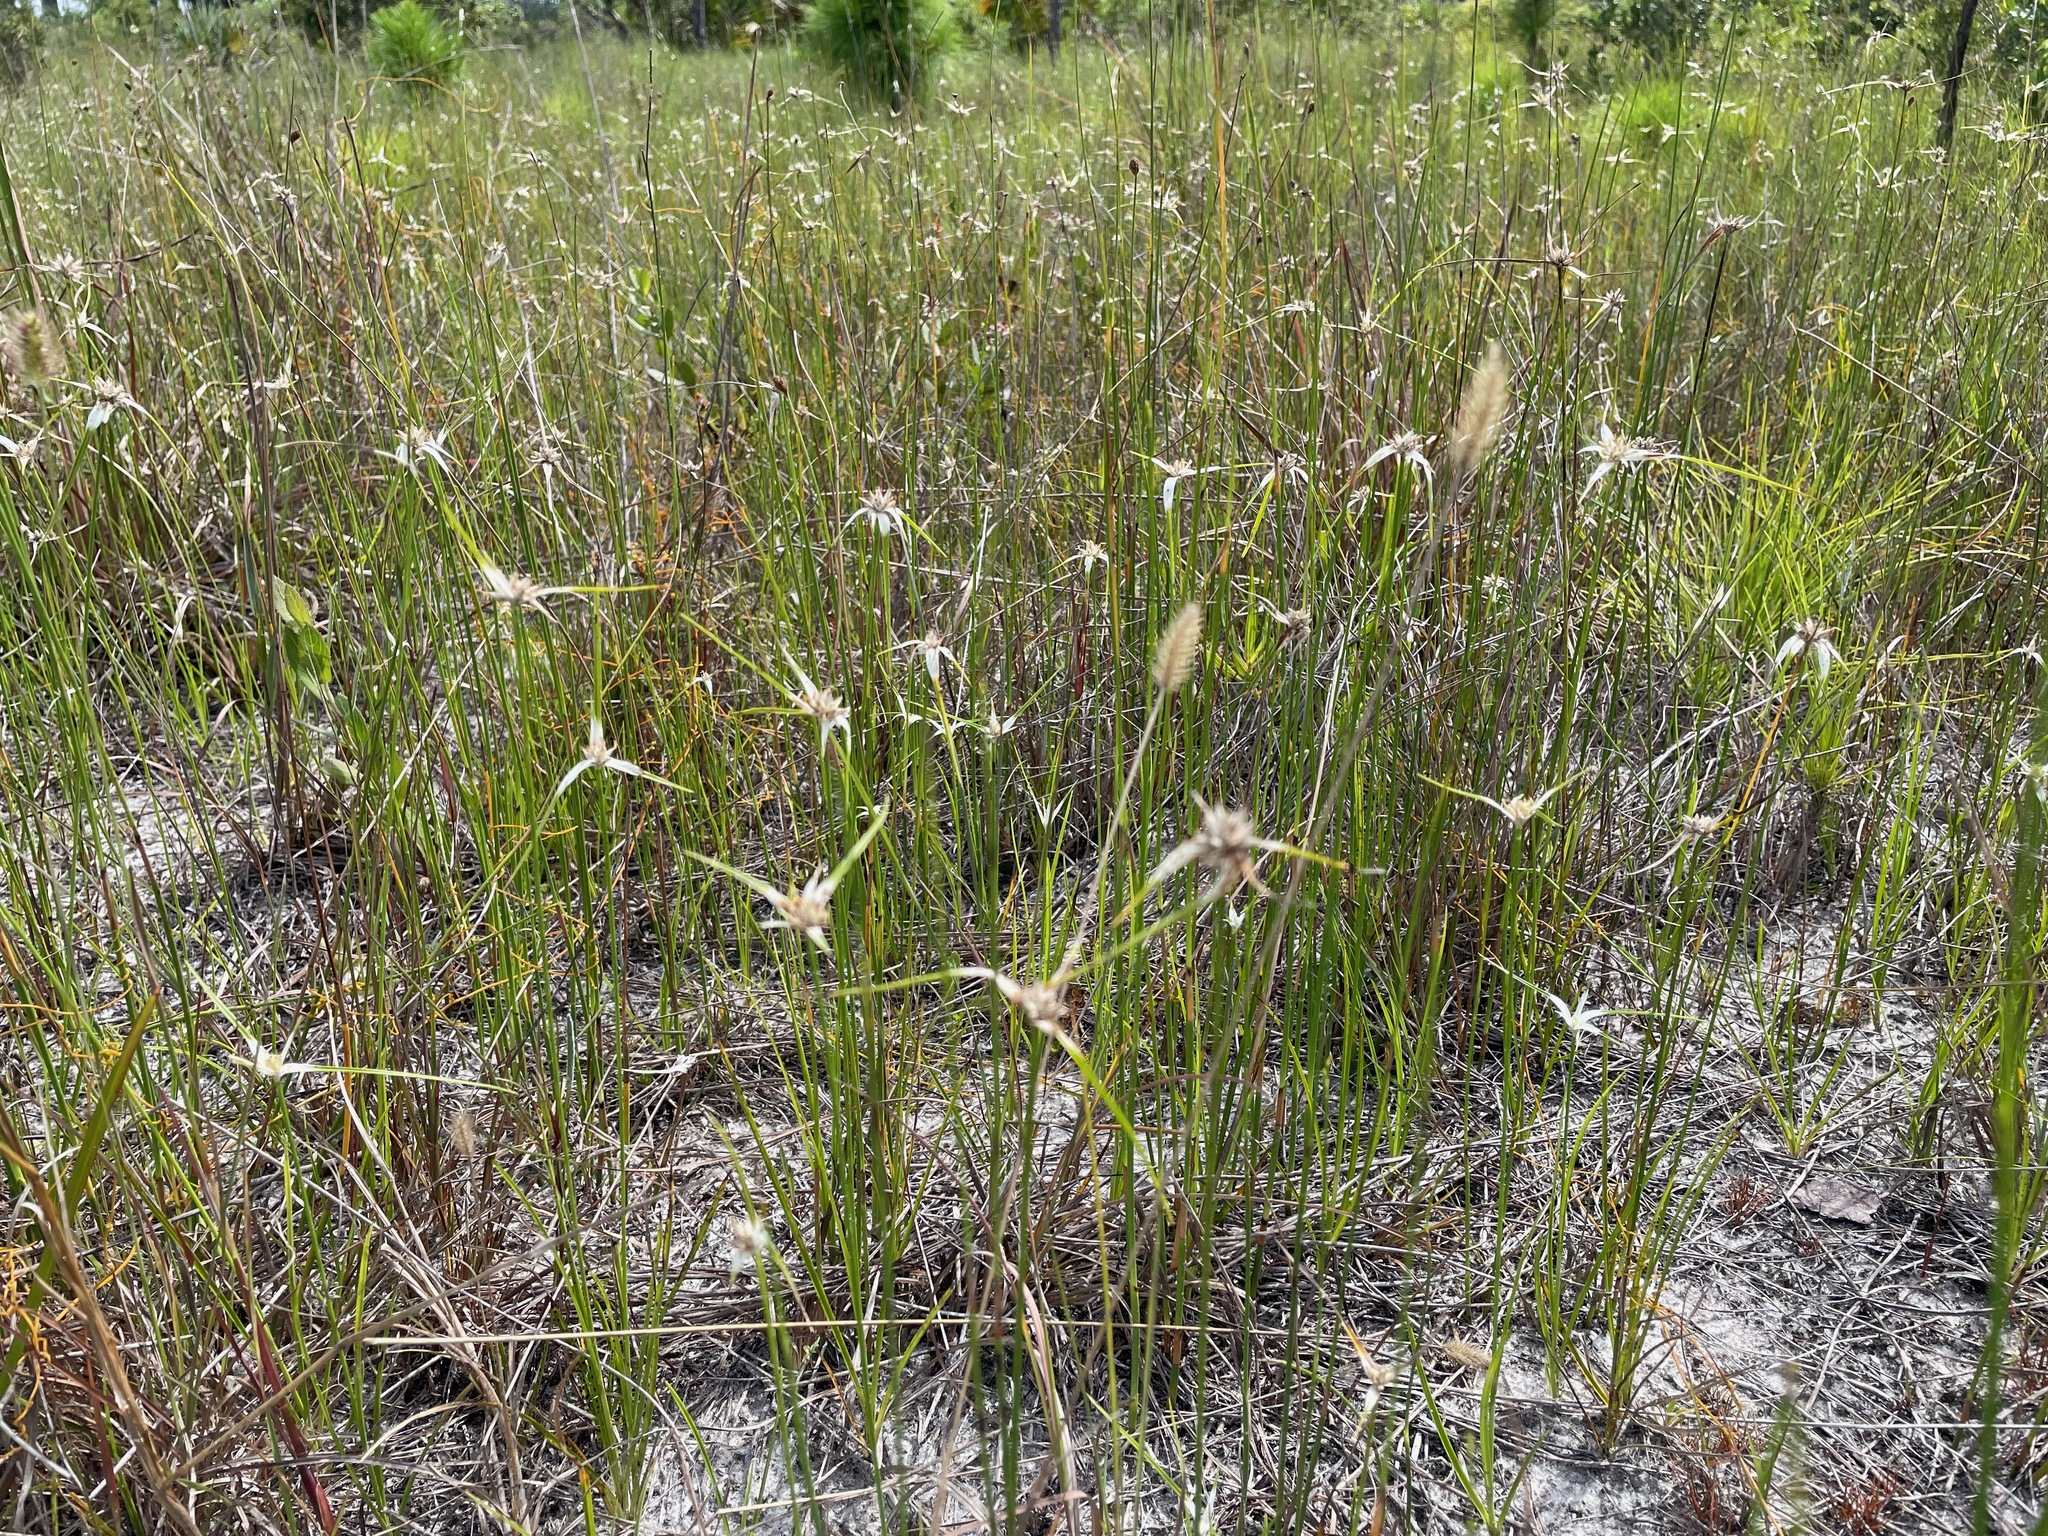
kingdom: Plantae
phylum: Tracheophyta
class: Liliopsida
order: Poales
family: Cyperaceae
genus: Rhynchospora
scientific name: Rhynchospora colorata
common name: Star sedge
